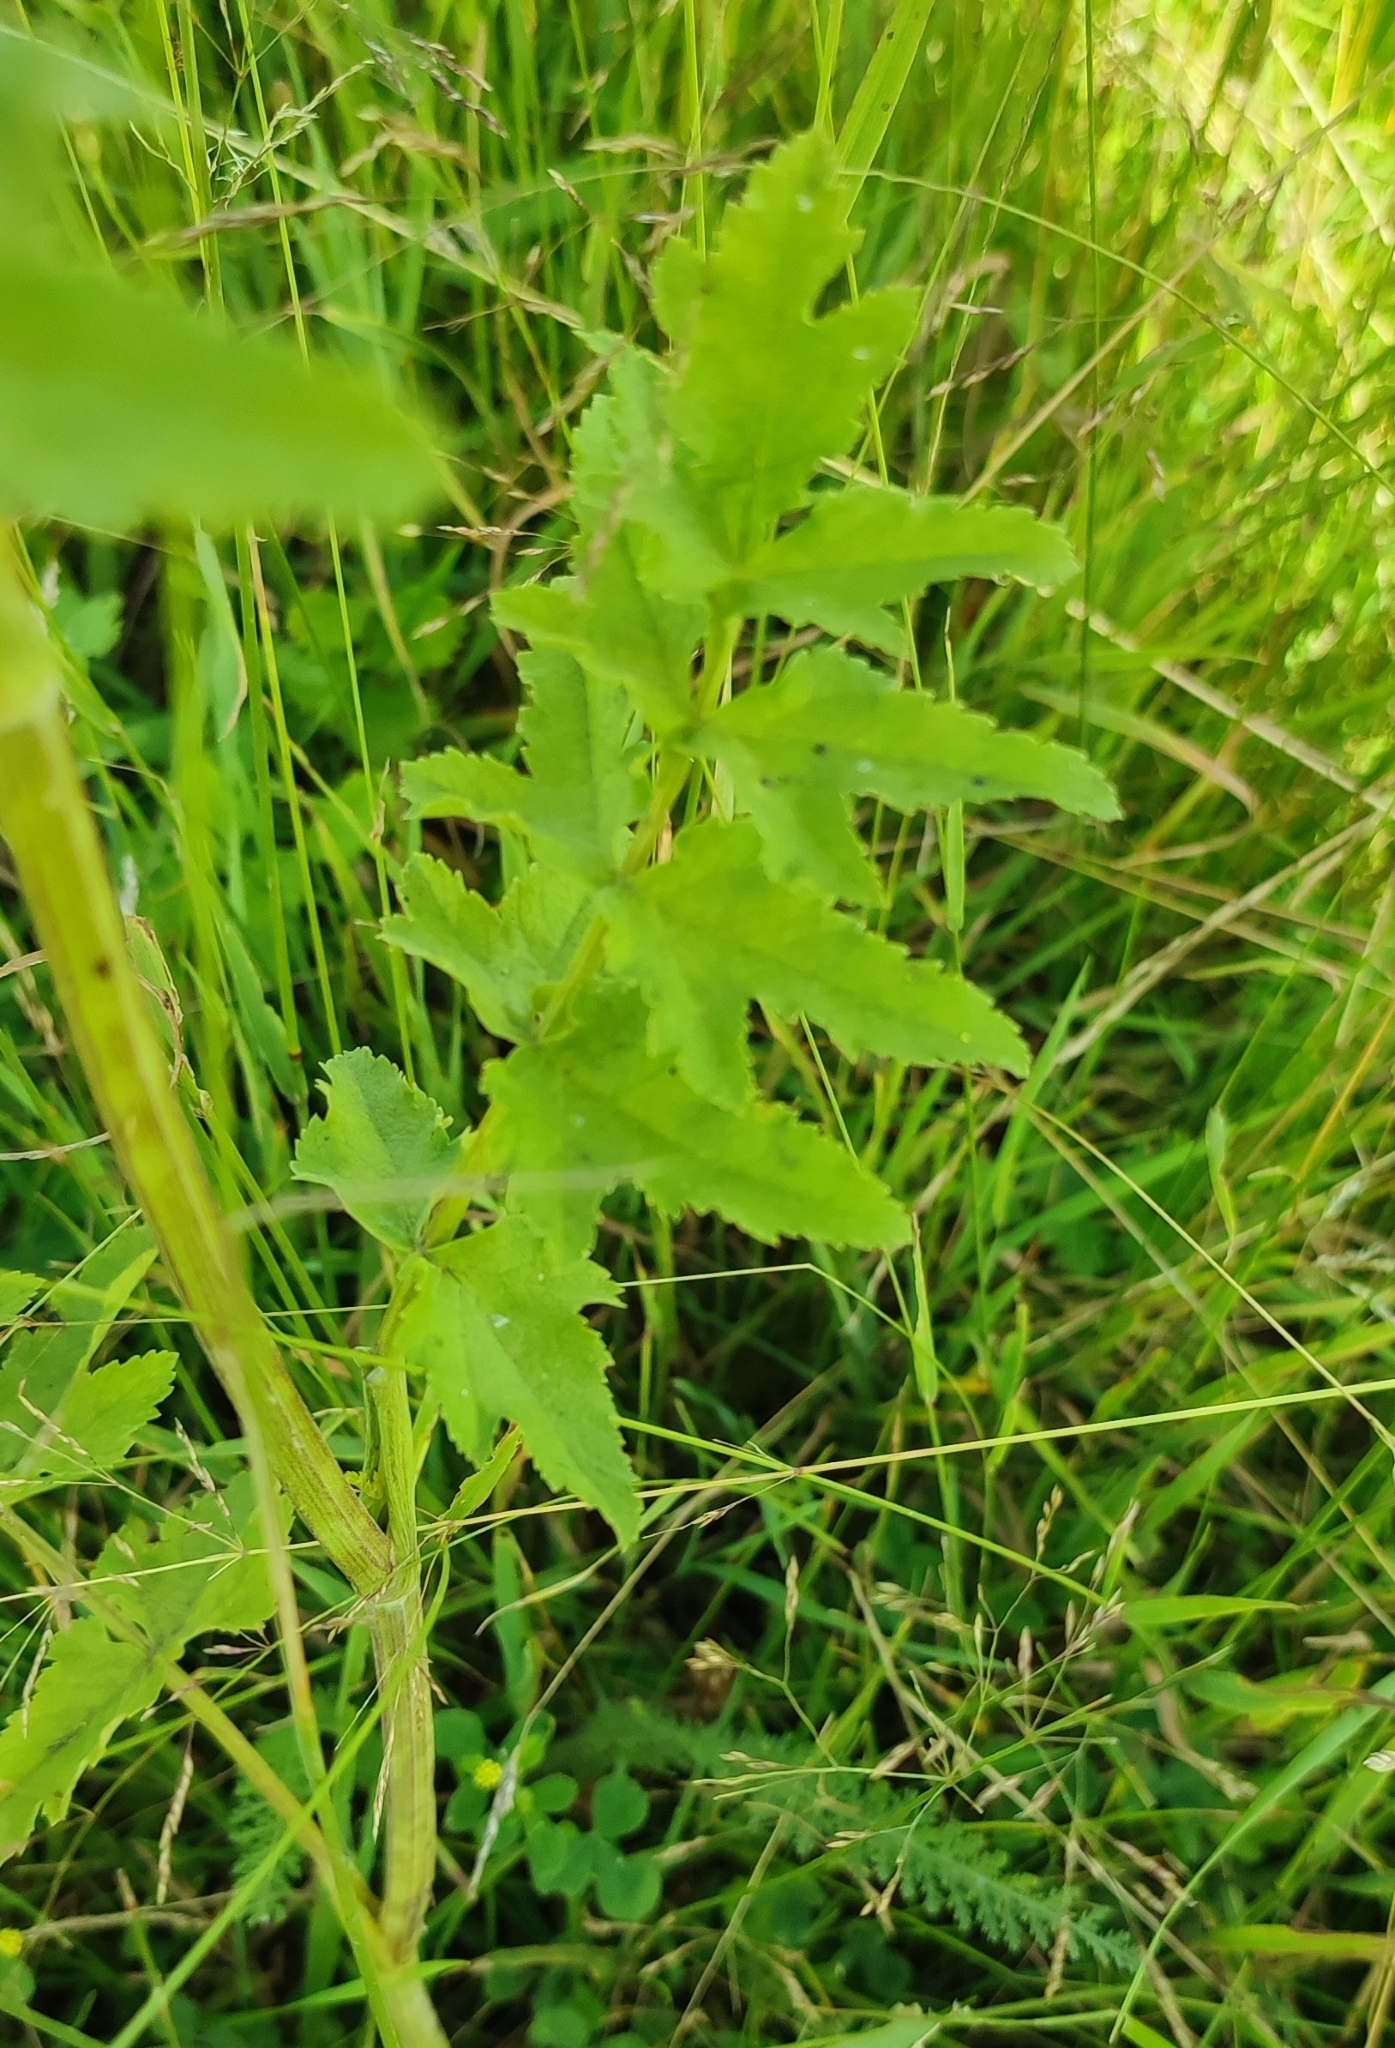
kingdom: Plantae
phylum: Tracheophyta
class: Magnoliopsida
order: Apiales
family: Apiaceae
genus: Pastinaca
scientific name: Pastinaca sativa
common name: Wild parsnip
